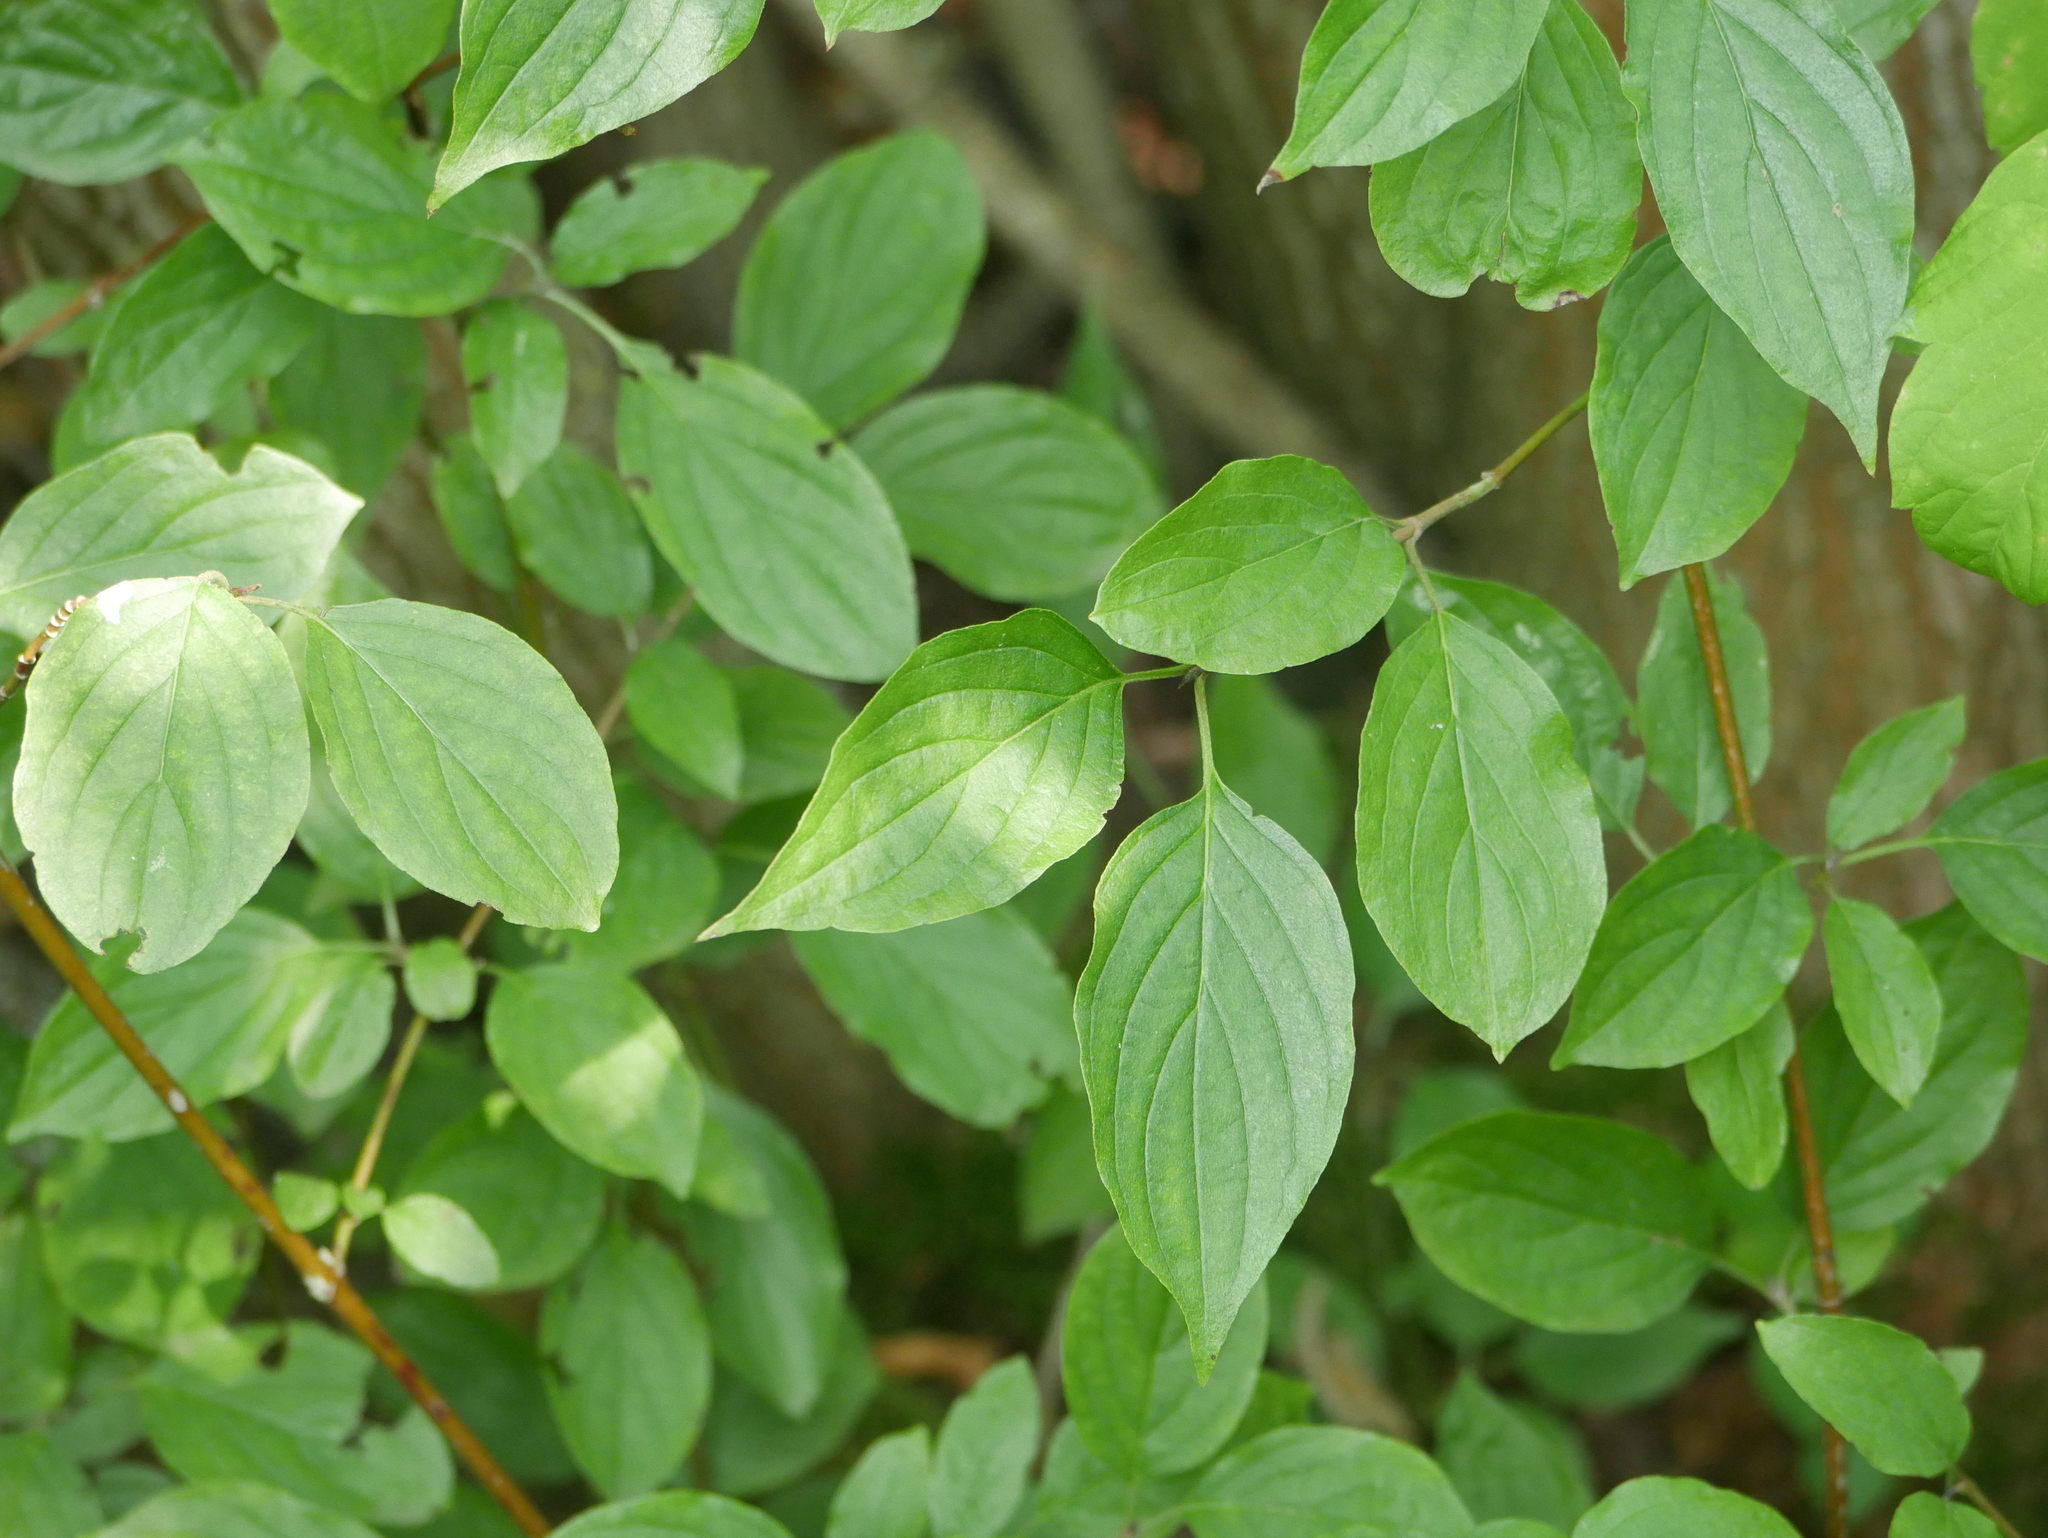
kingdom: Plantae
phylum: Tracheophyta
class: Magnoliopsida
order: Cornales
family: Cornaceae
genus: Cornus
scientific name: Cornus sanguinea
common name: Dogwood
